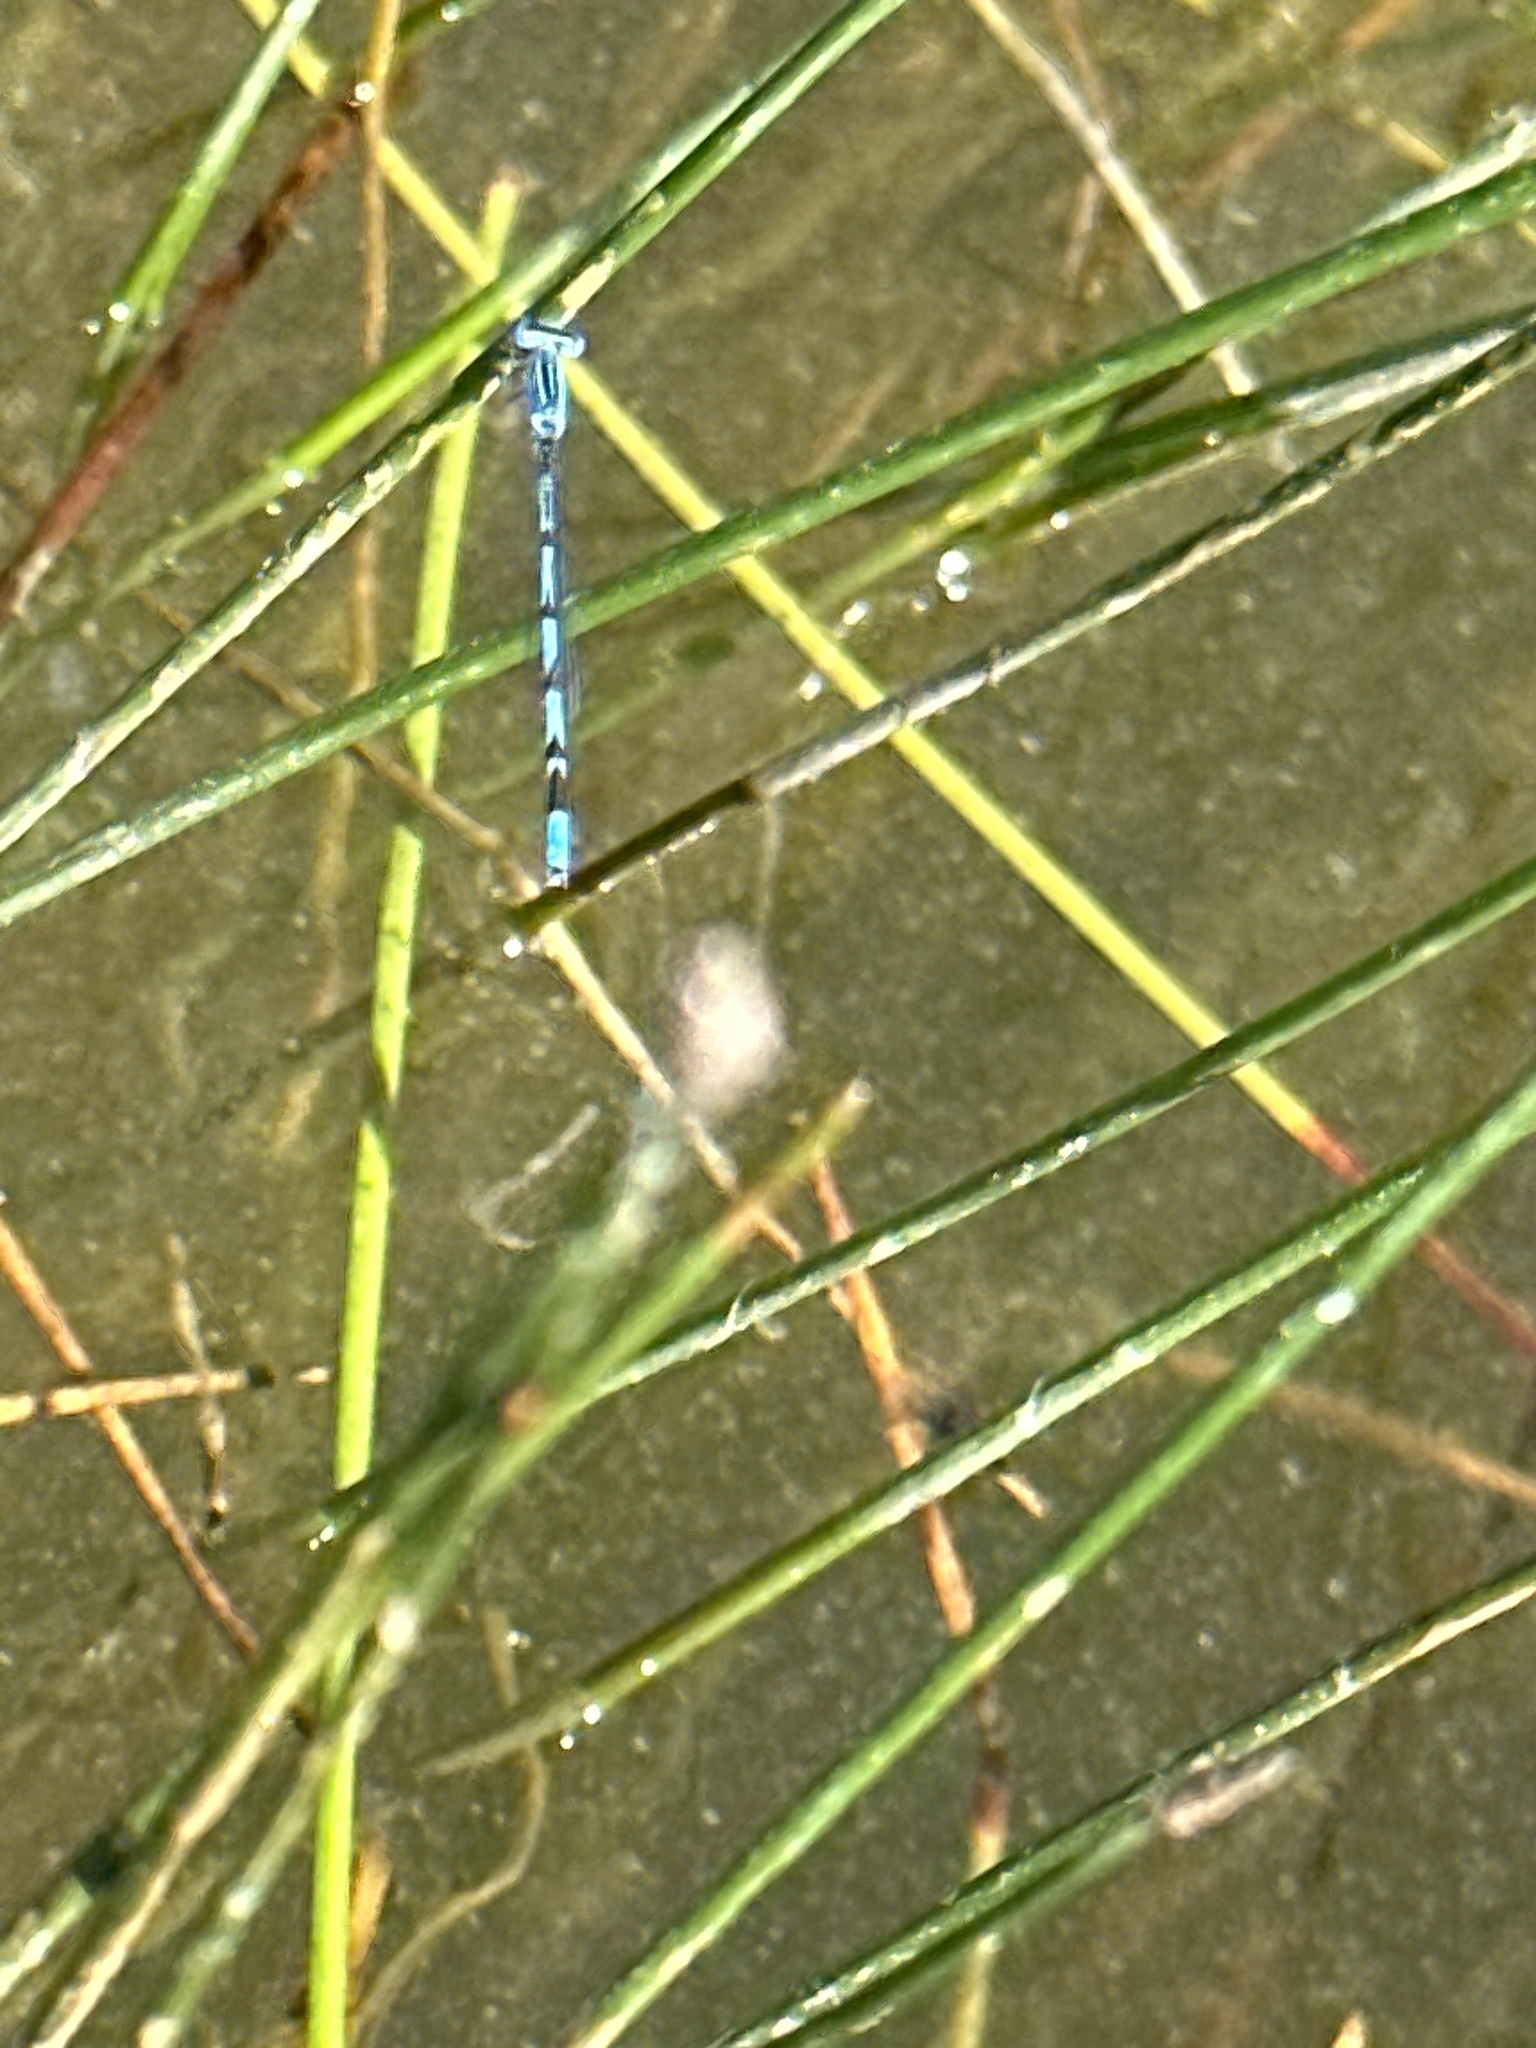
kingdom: Animalia
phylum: Arthropoda
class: Insecta
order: Odonata
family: Coenagrionidae
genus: Enallagma
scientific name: Enallagma basidens
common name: Double-striped bluet
